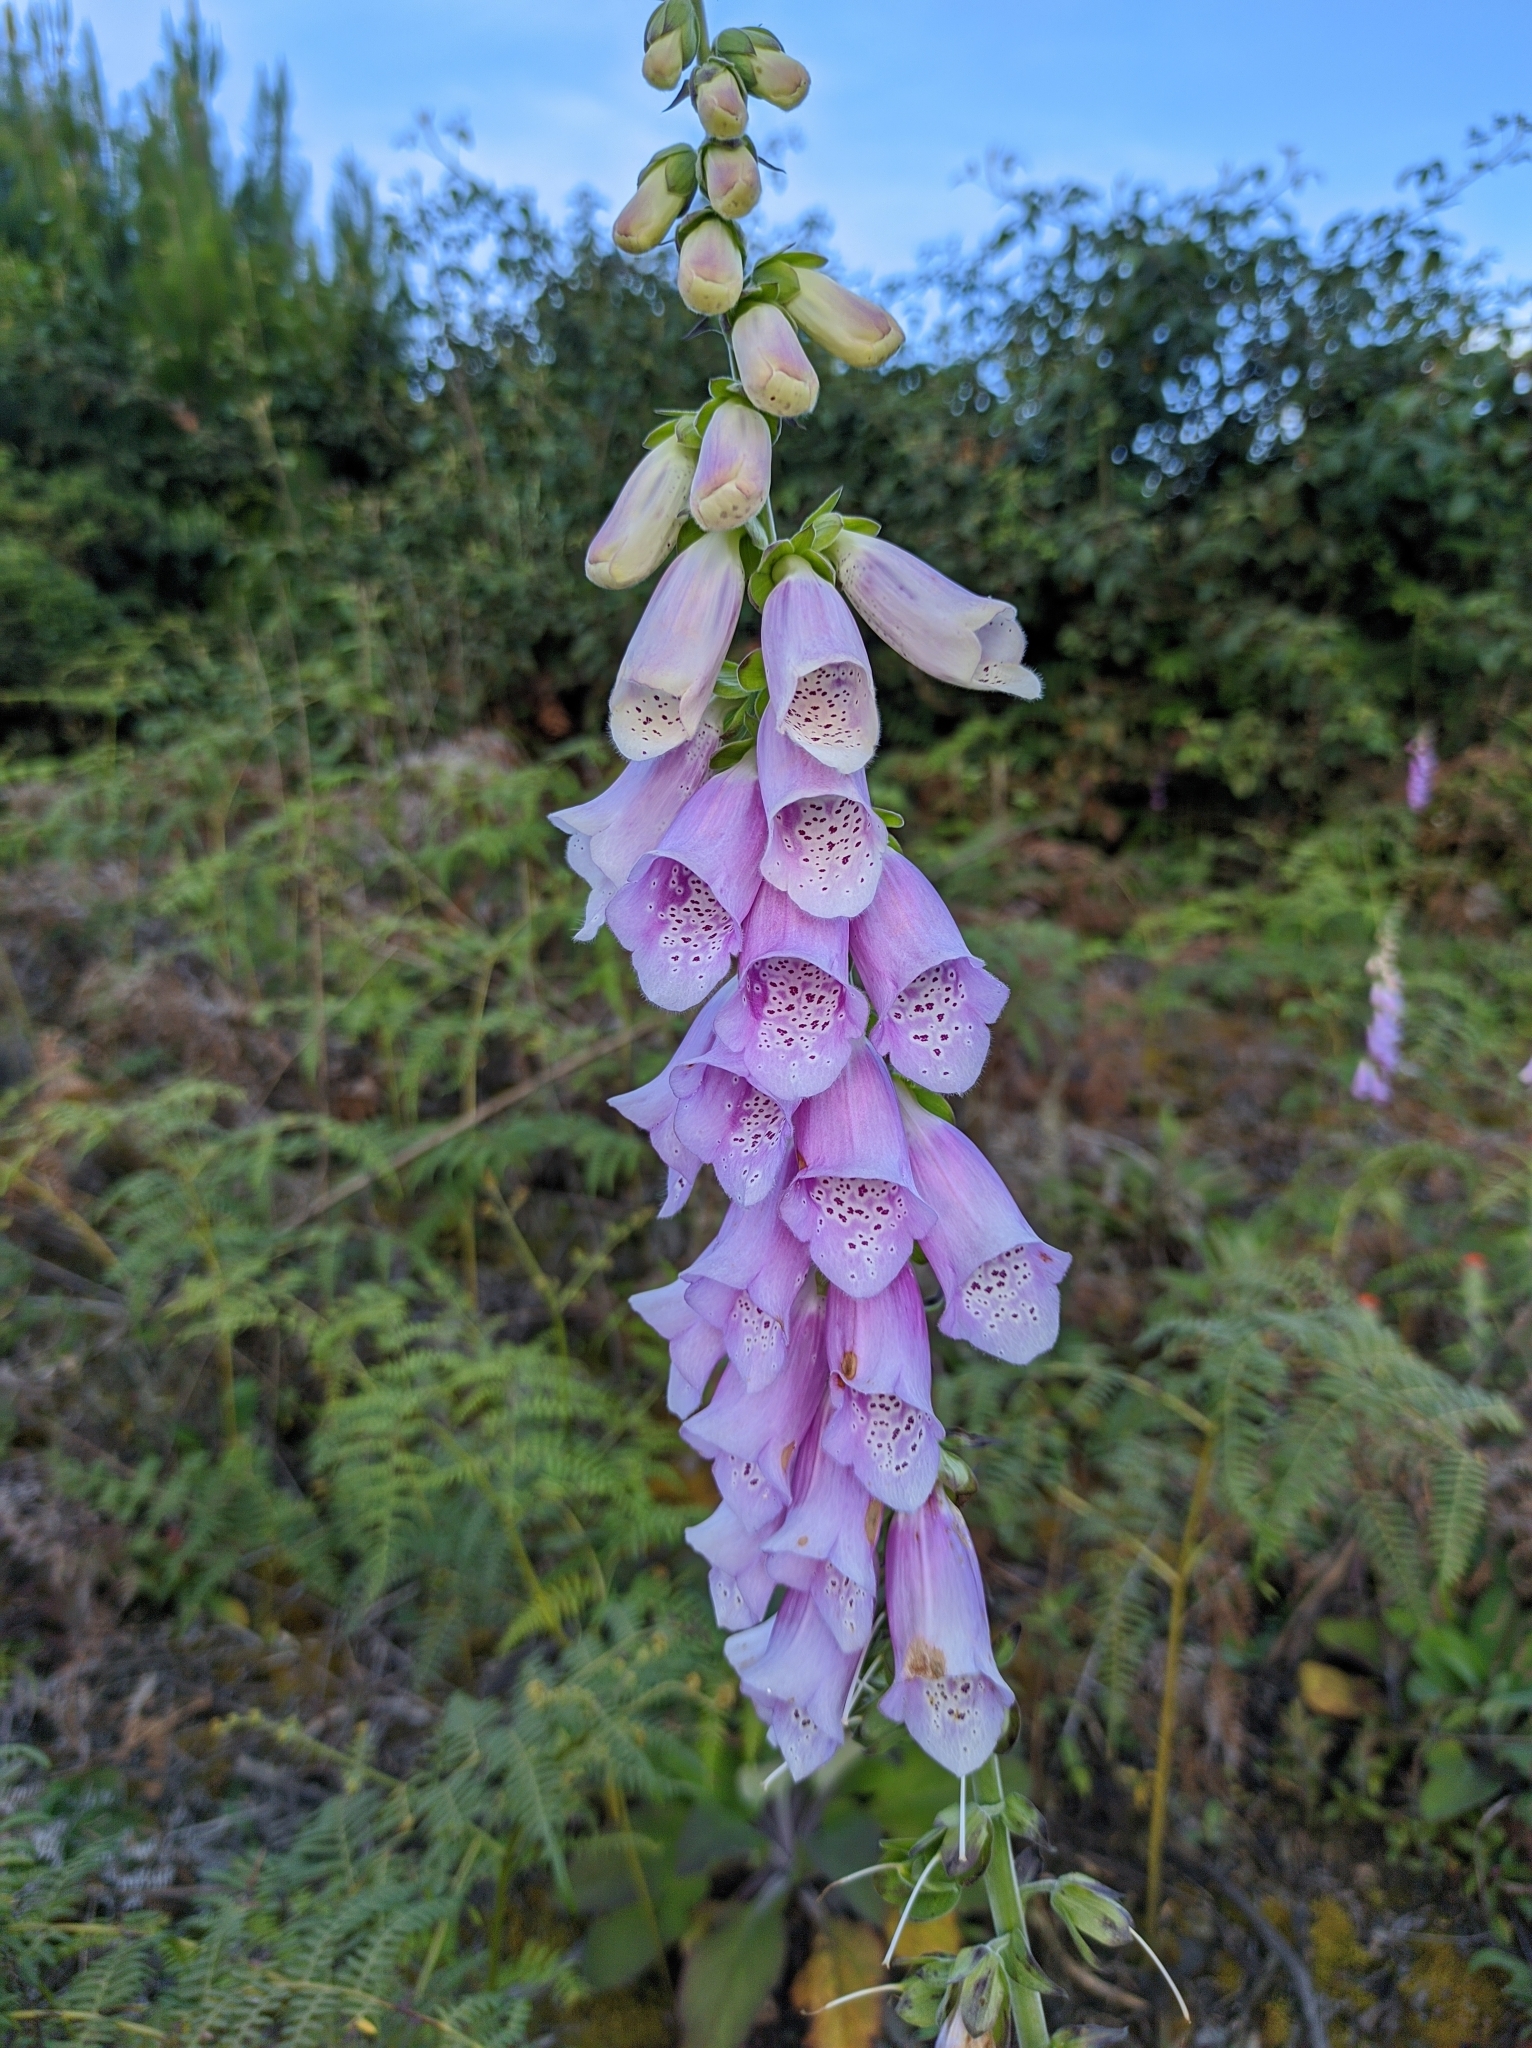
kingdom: Plantae
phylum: Tracheophyta
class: Magnoliopsida
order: Lamiales
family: Plantaginaceae
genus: Digitalis
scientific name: Digitalis purpurea
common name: Foxglove
